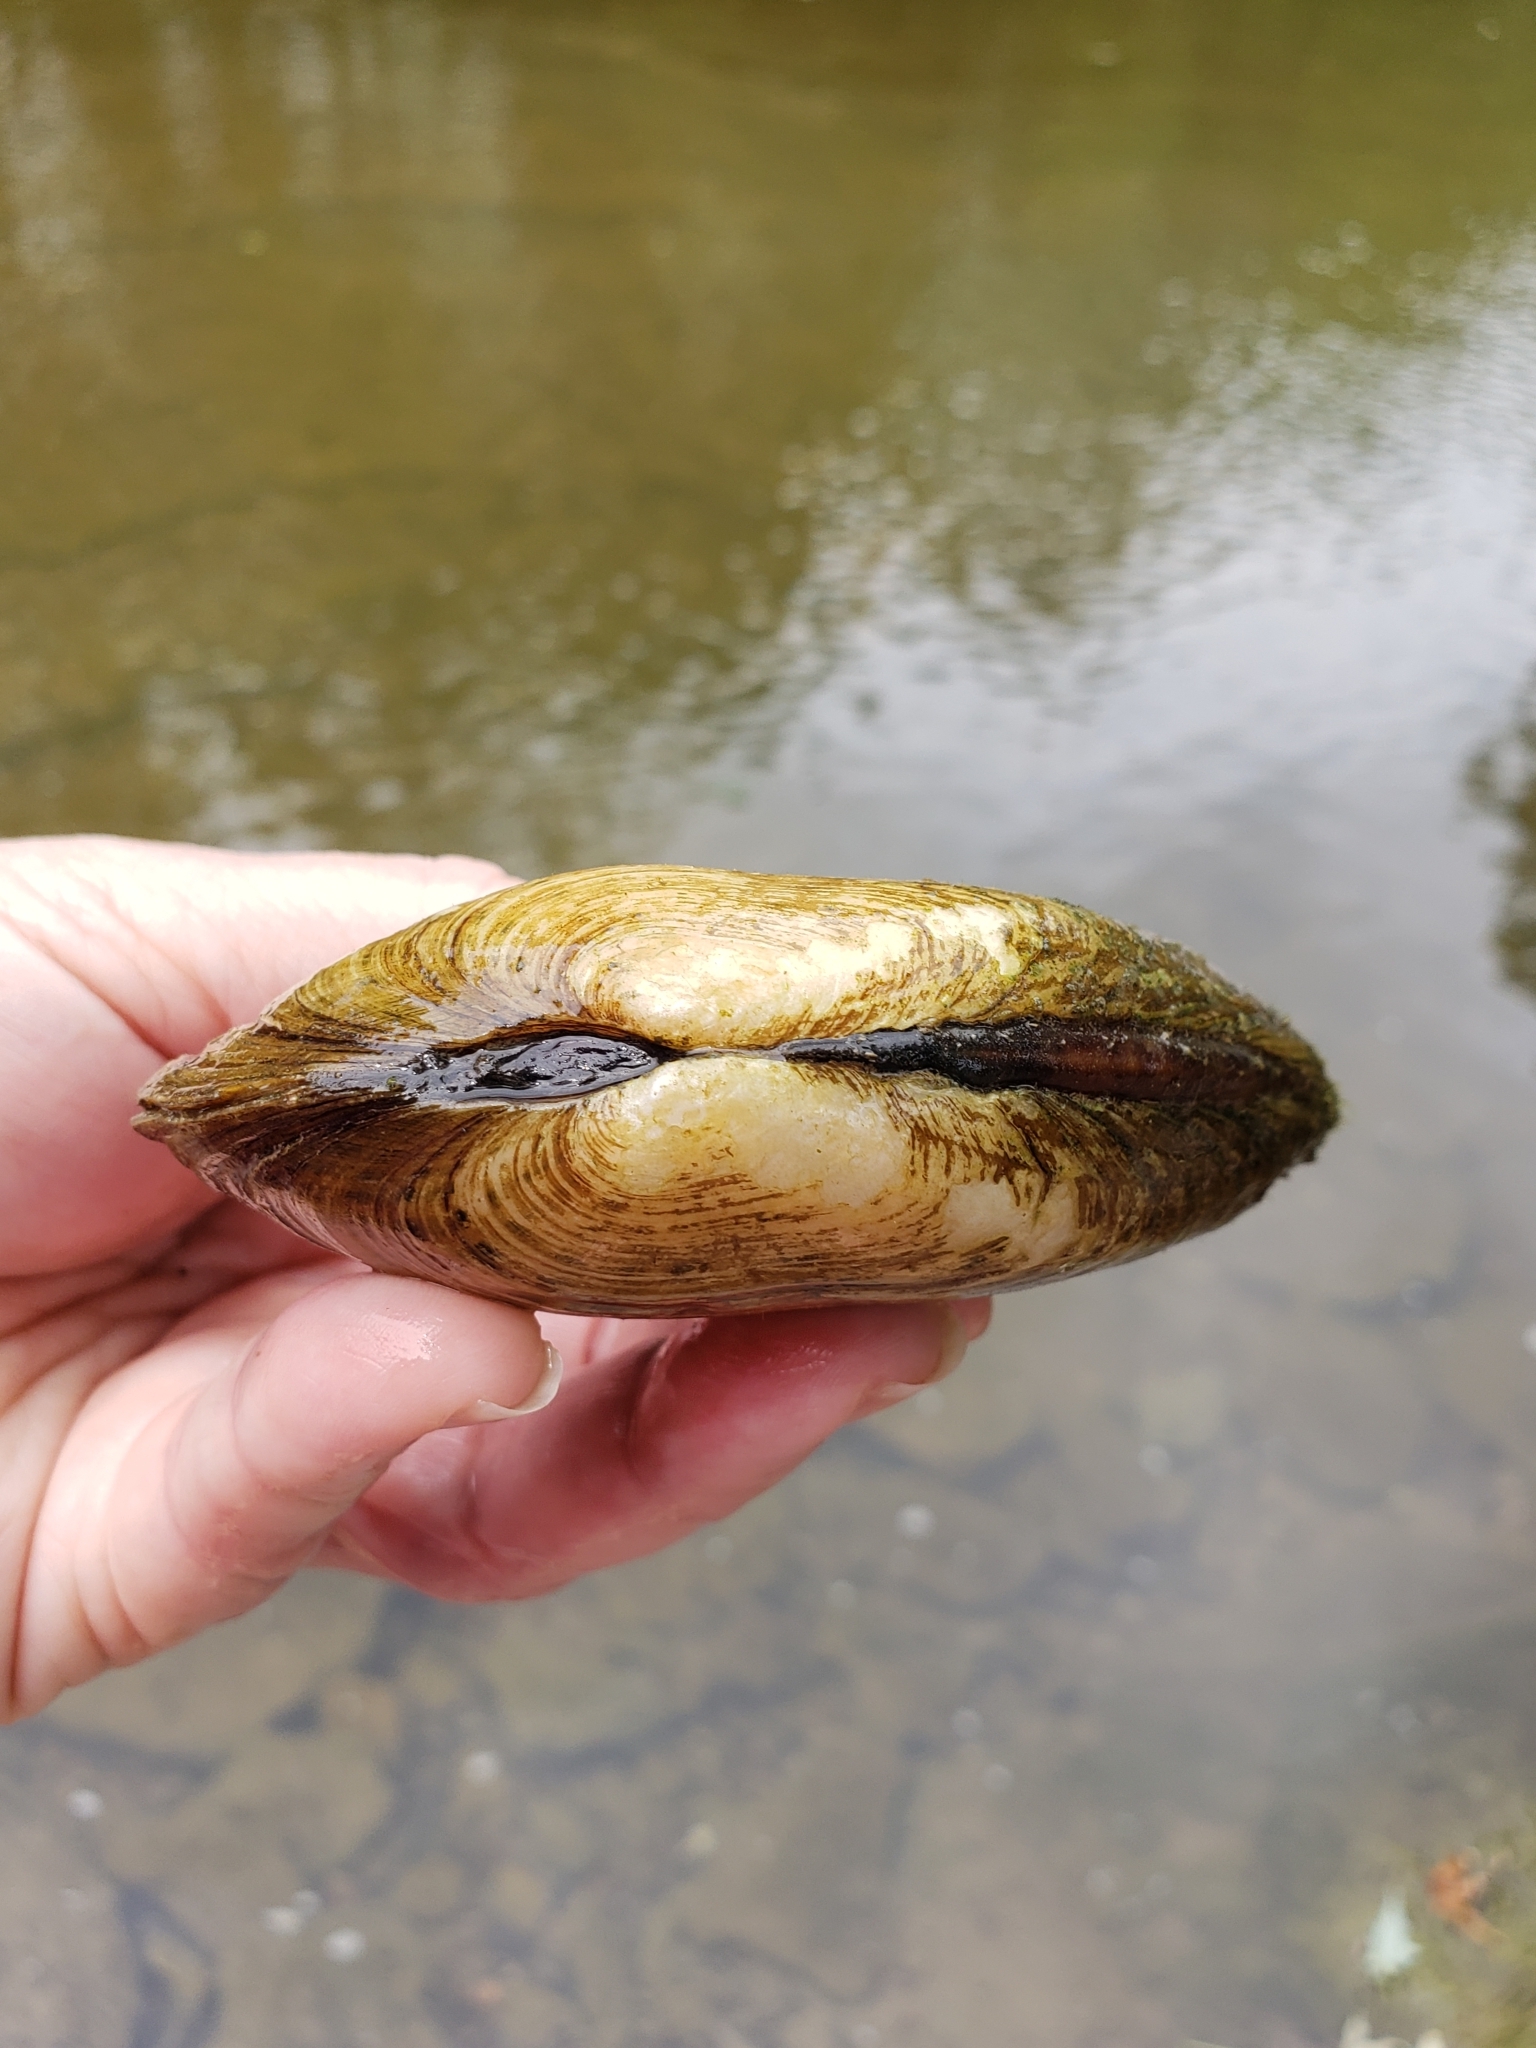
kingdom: Animalia
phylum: Mollusca
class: Bivalvia
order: Unionida
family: Unionidae
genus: Ptychobranchus
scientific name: Ptychobranchus fasciolaris
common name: Kidneyshell
